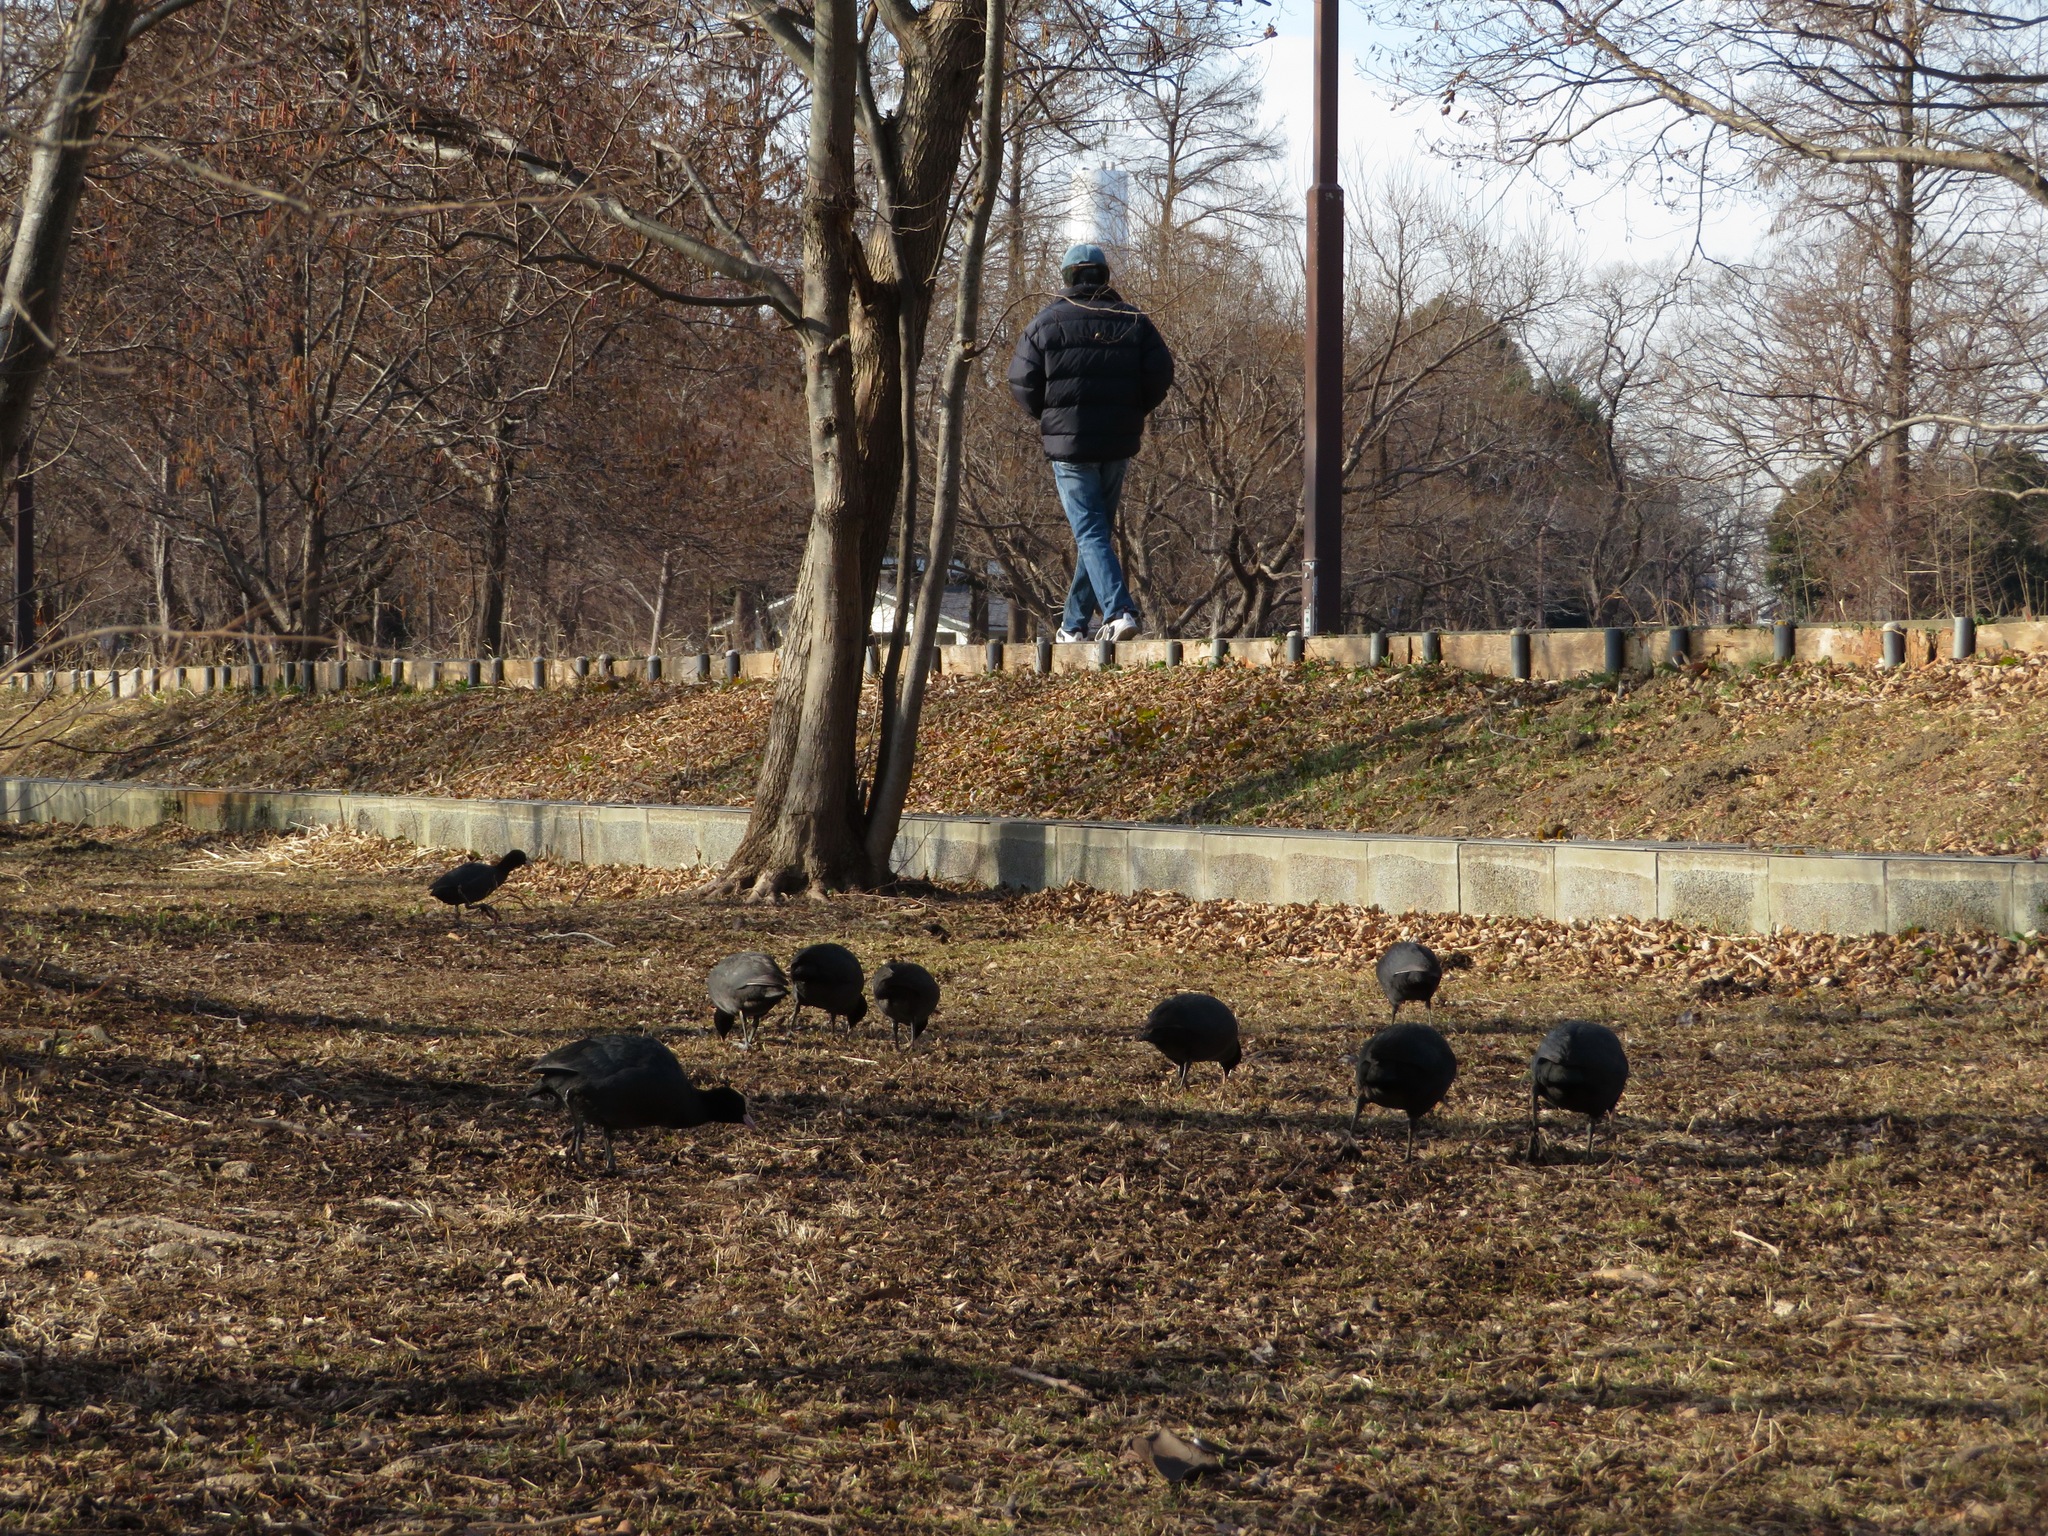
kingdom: Animalia
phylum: Chordata
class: Aves
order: Gruiformes
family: Rallidae
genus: Fulica
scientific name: Fulica atra
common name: Eurasian coot
